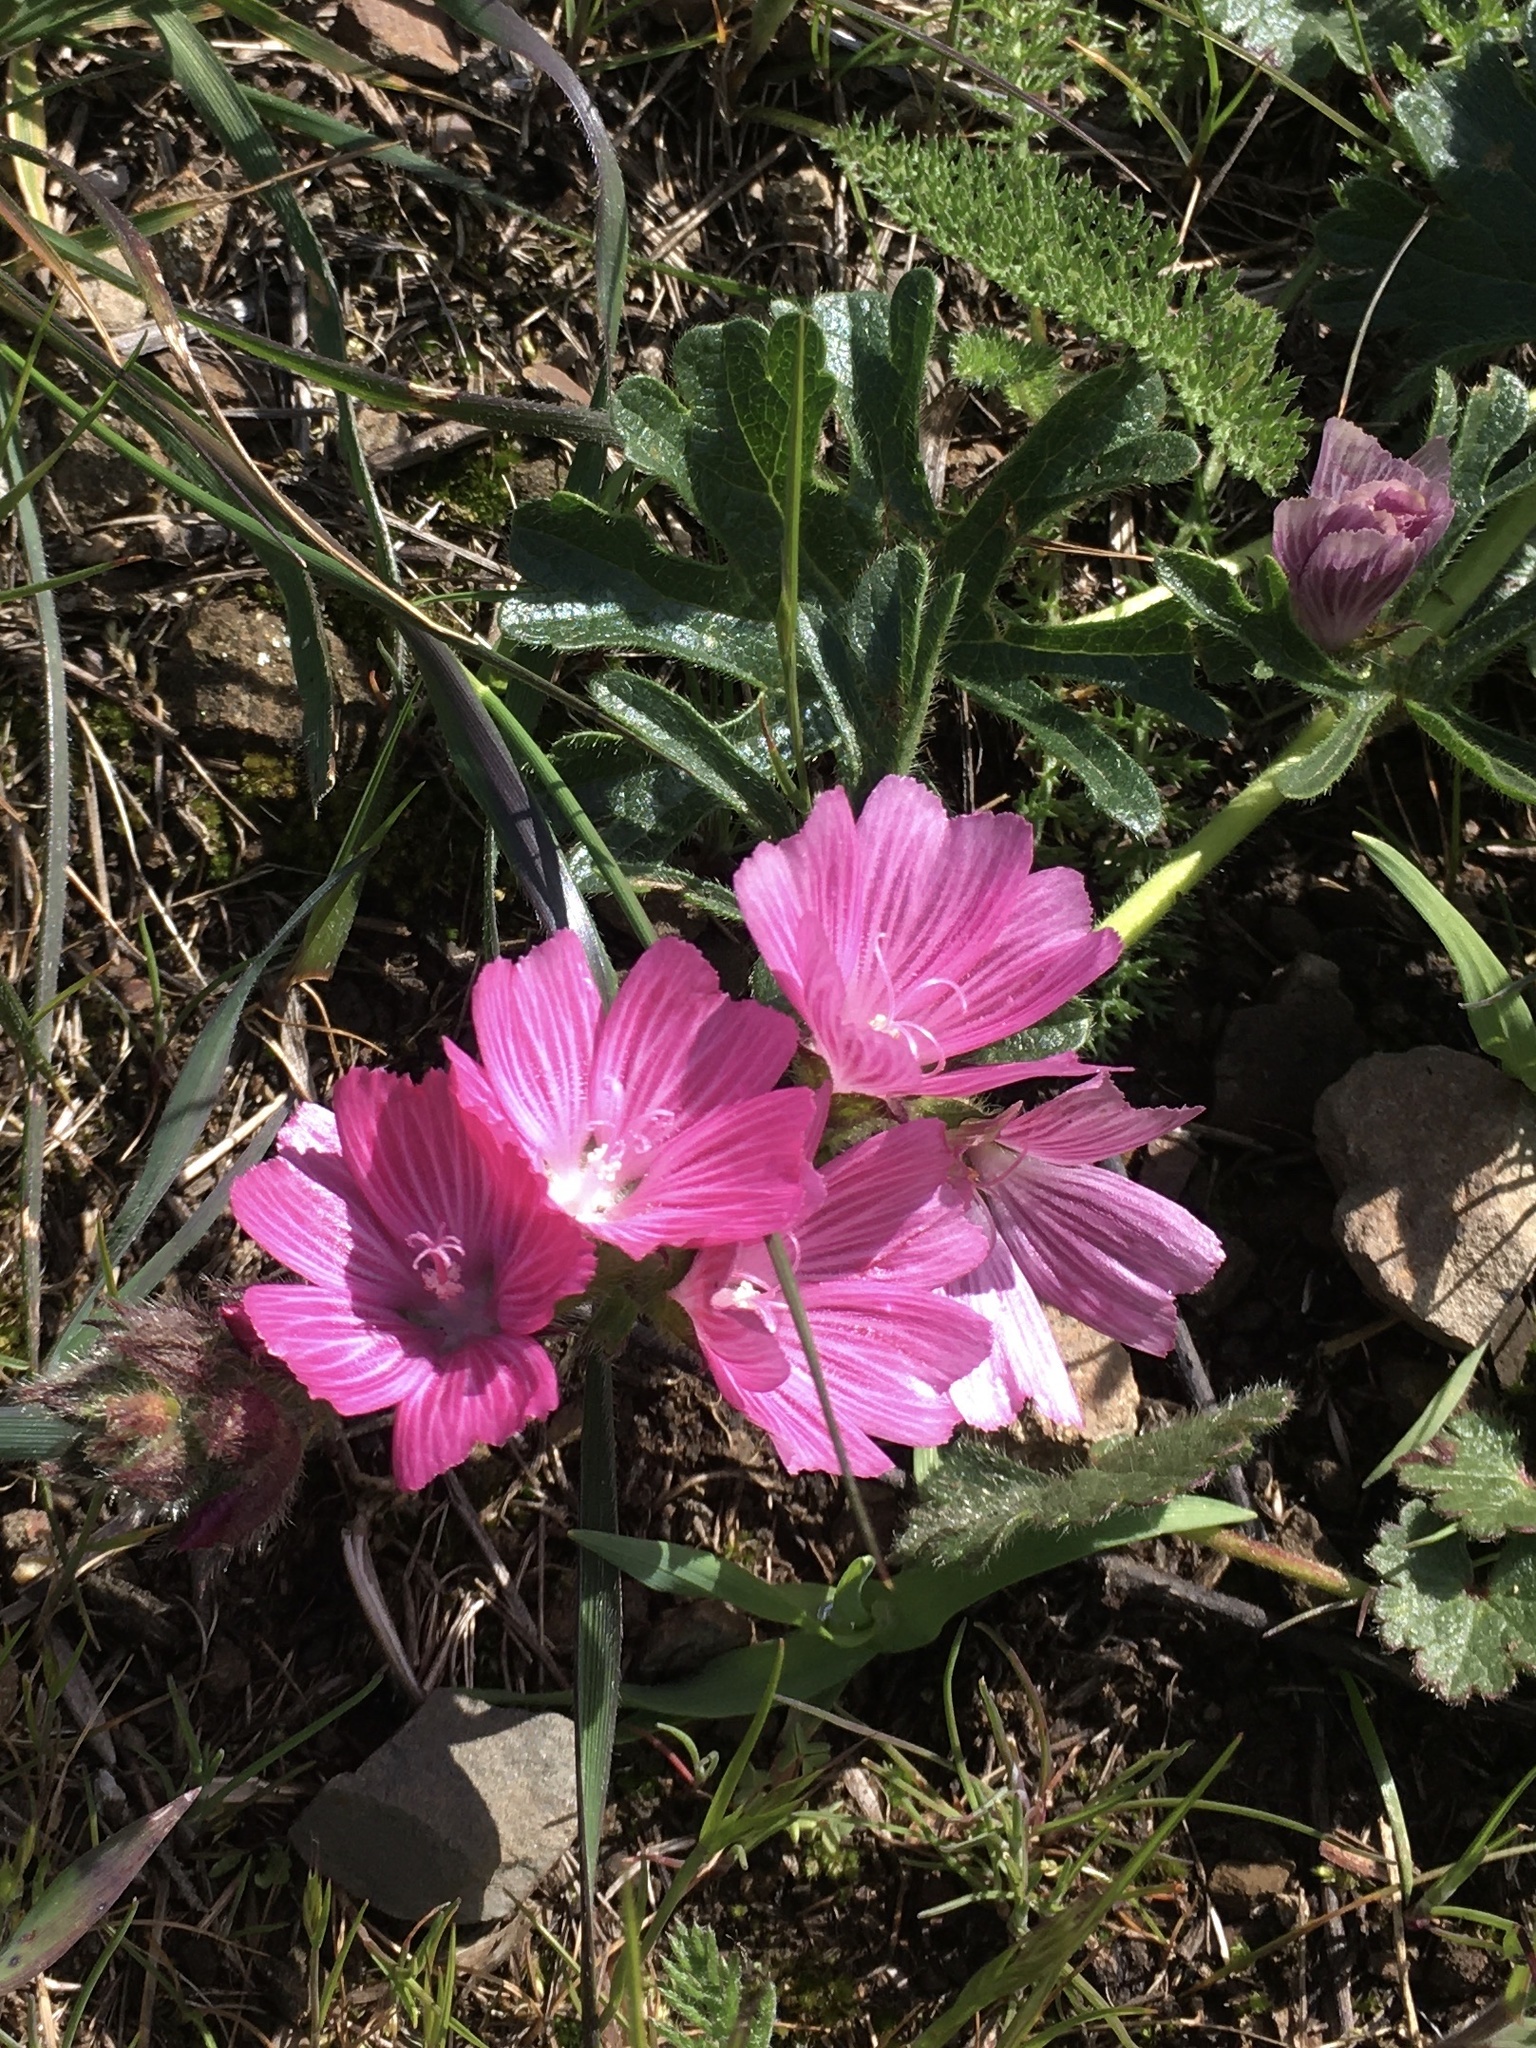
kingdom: Plantae
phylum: Tracheophyta
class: Magnoliopsida
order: Malvales
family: Malvaceae
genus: Sidalcea
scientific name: Sidalcea malviflora
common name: Greek mallow
